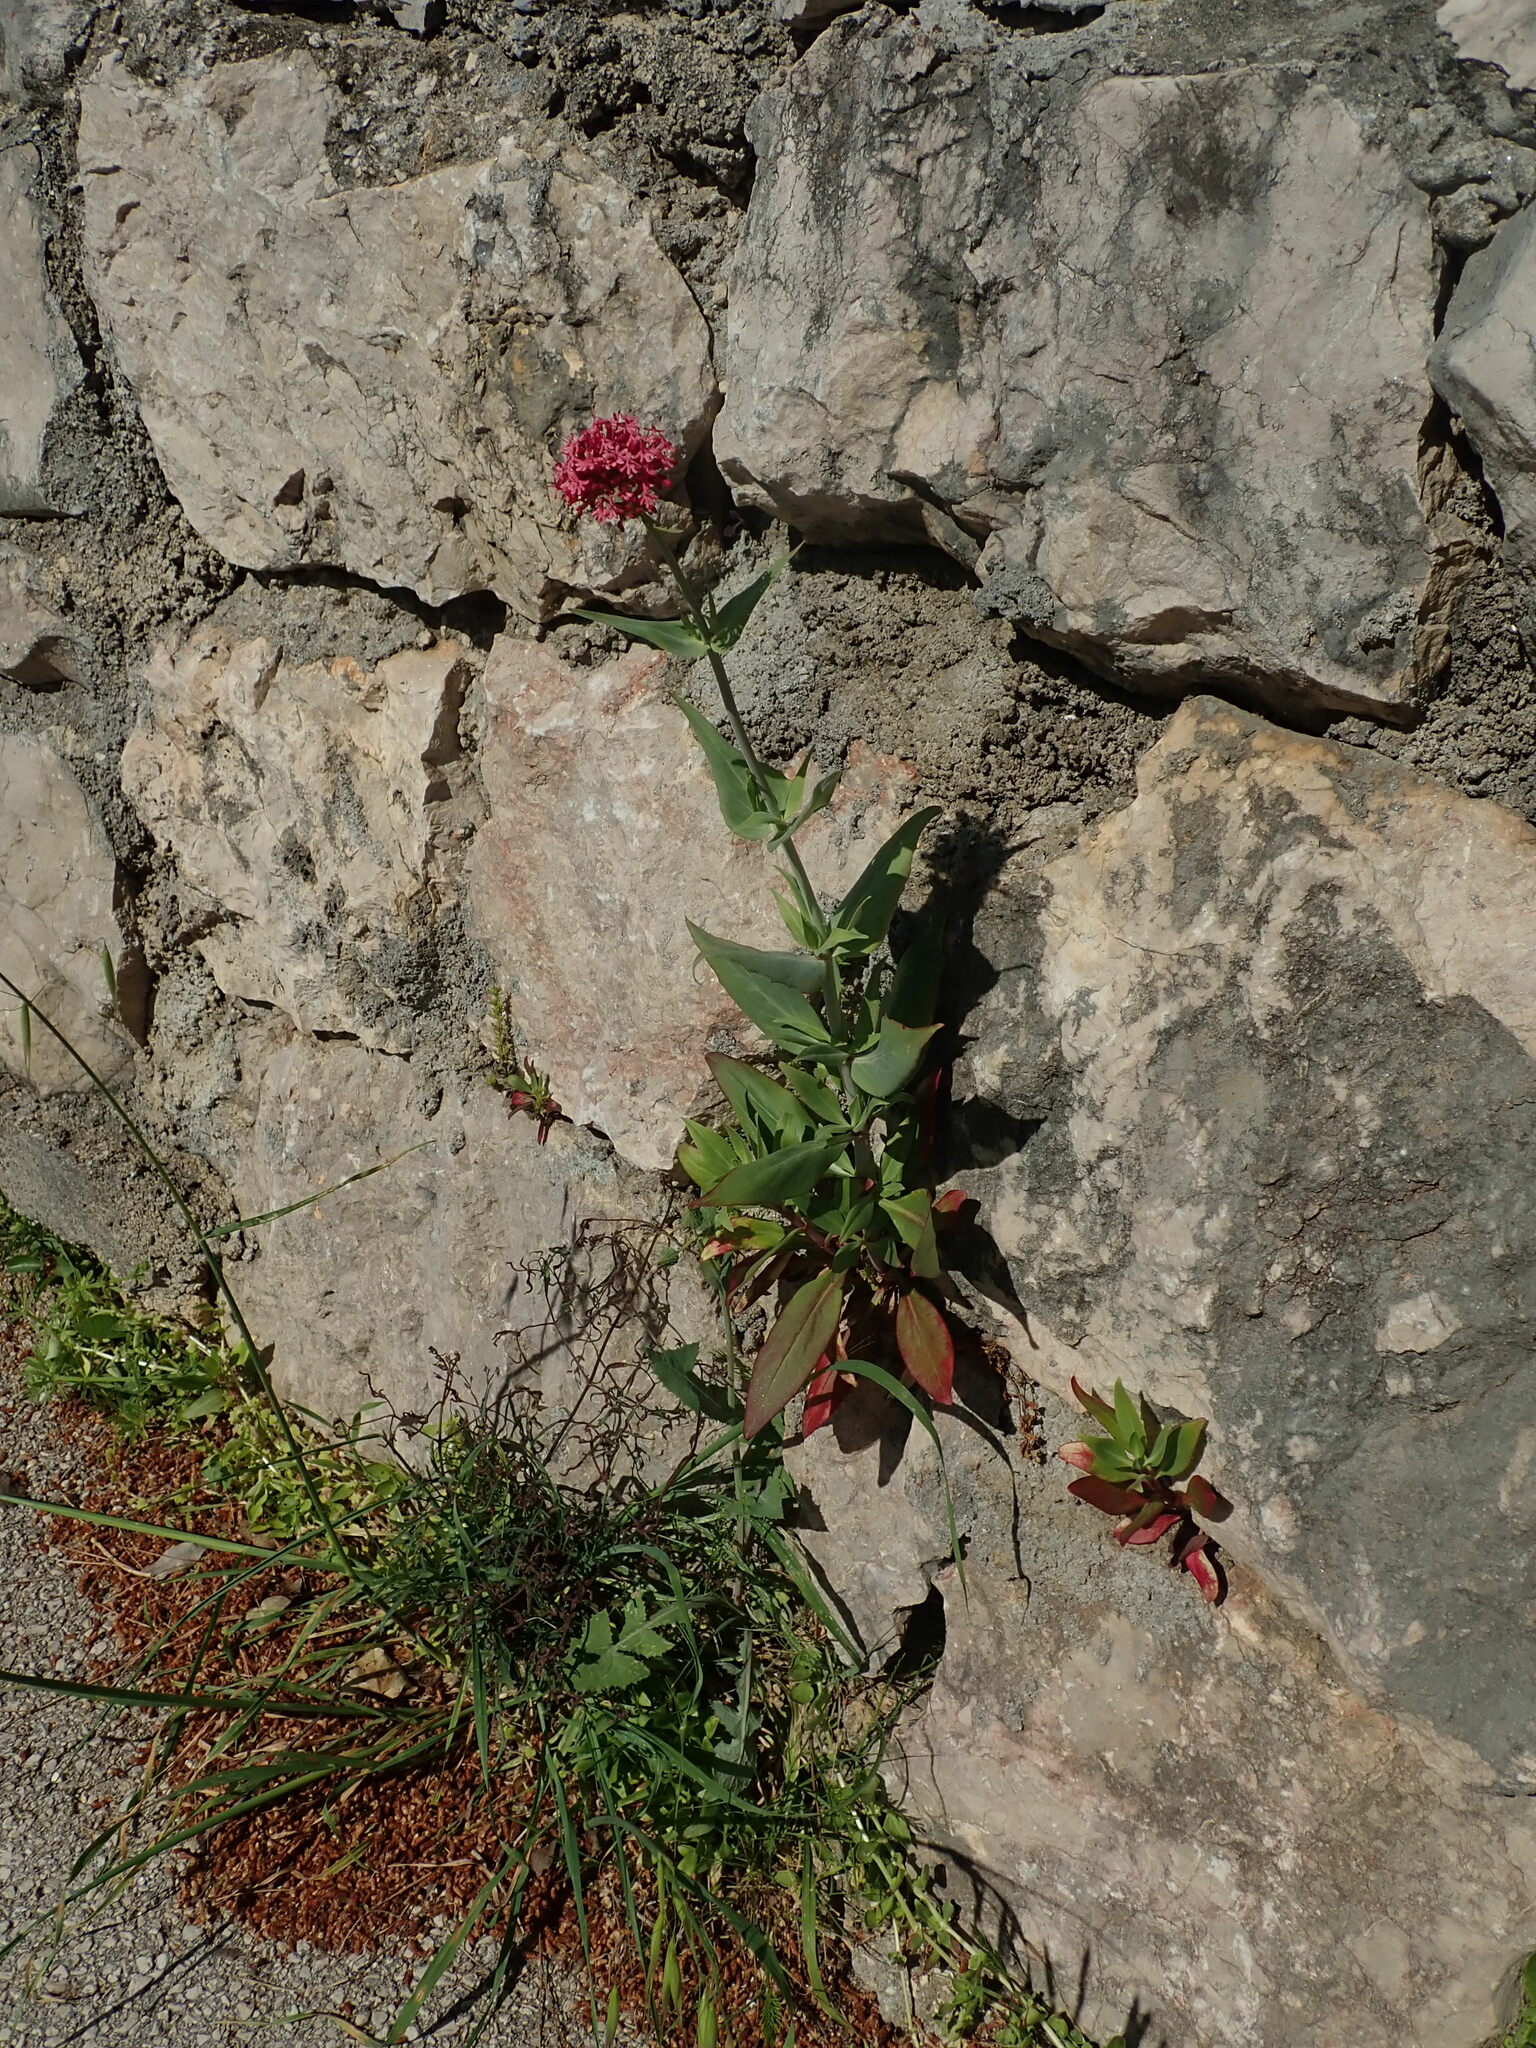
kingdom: Plantae
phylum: Tracheophyta
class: Magnoliopsida
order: Dipsacales
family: Caprifoliaceae
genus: Centranthus
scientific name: Centranthus ruber
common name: Red valerian
